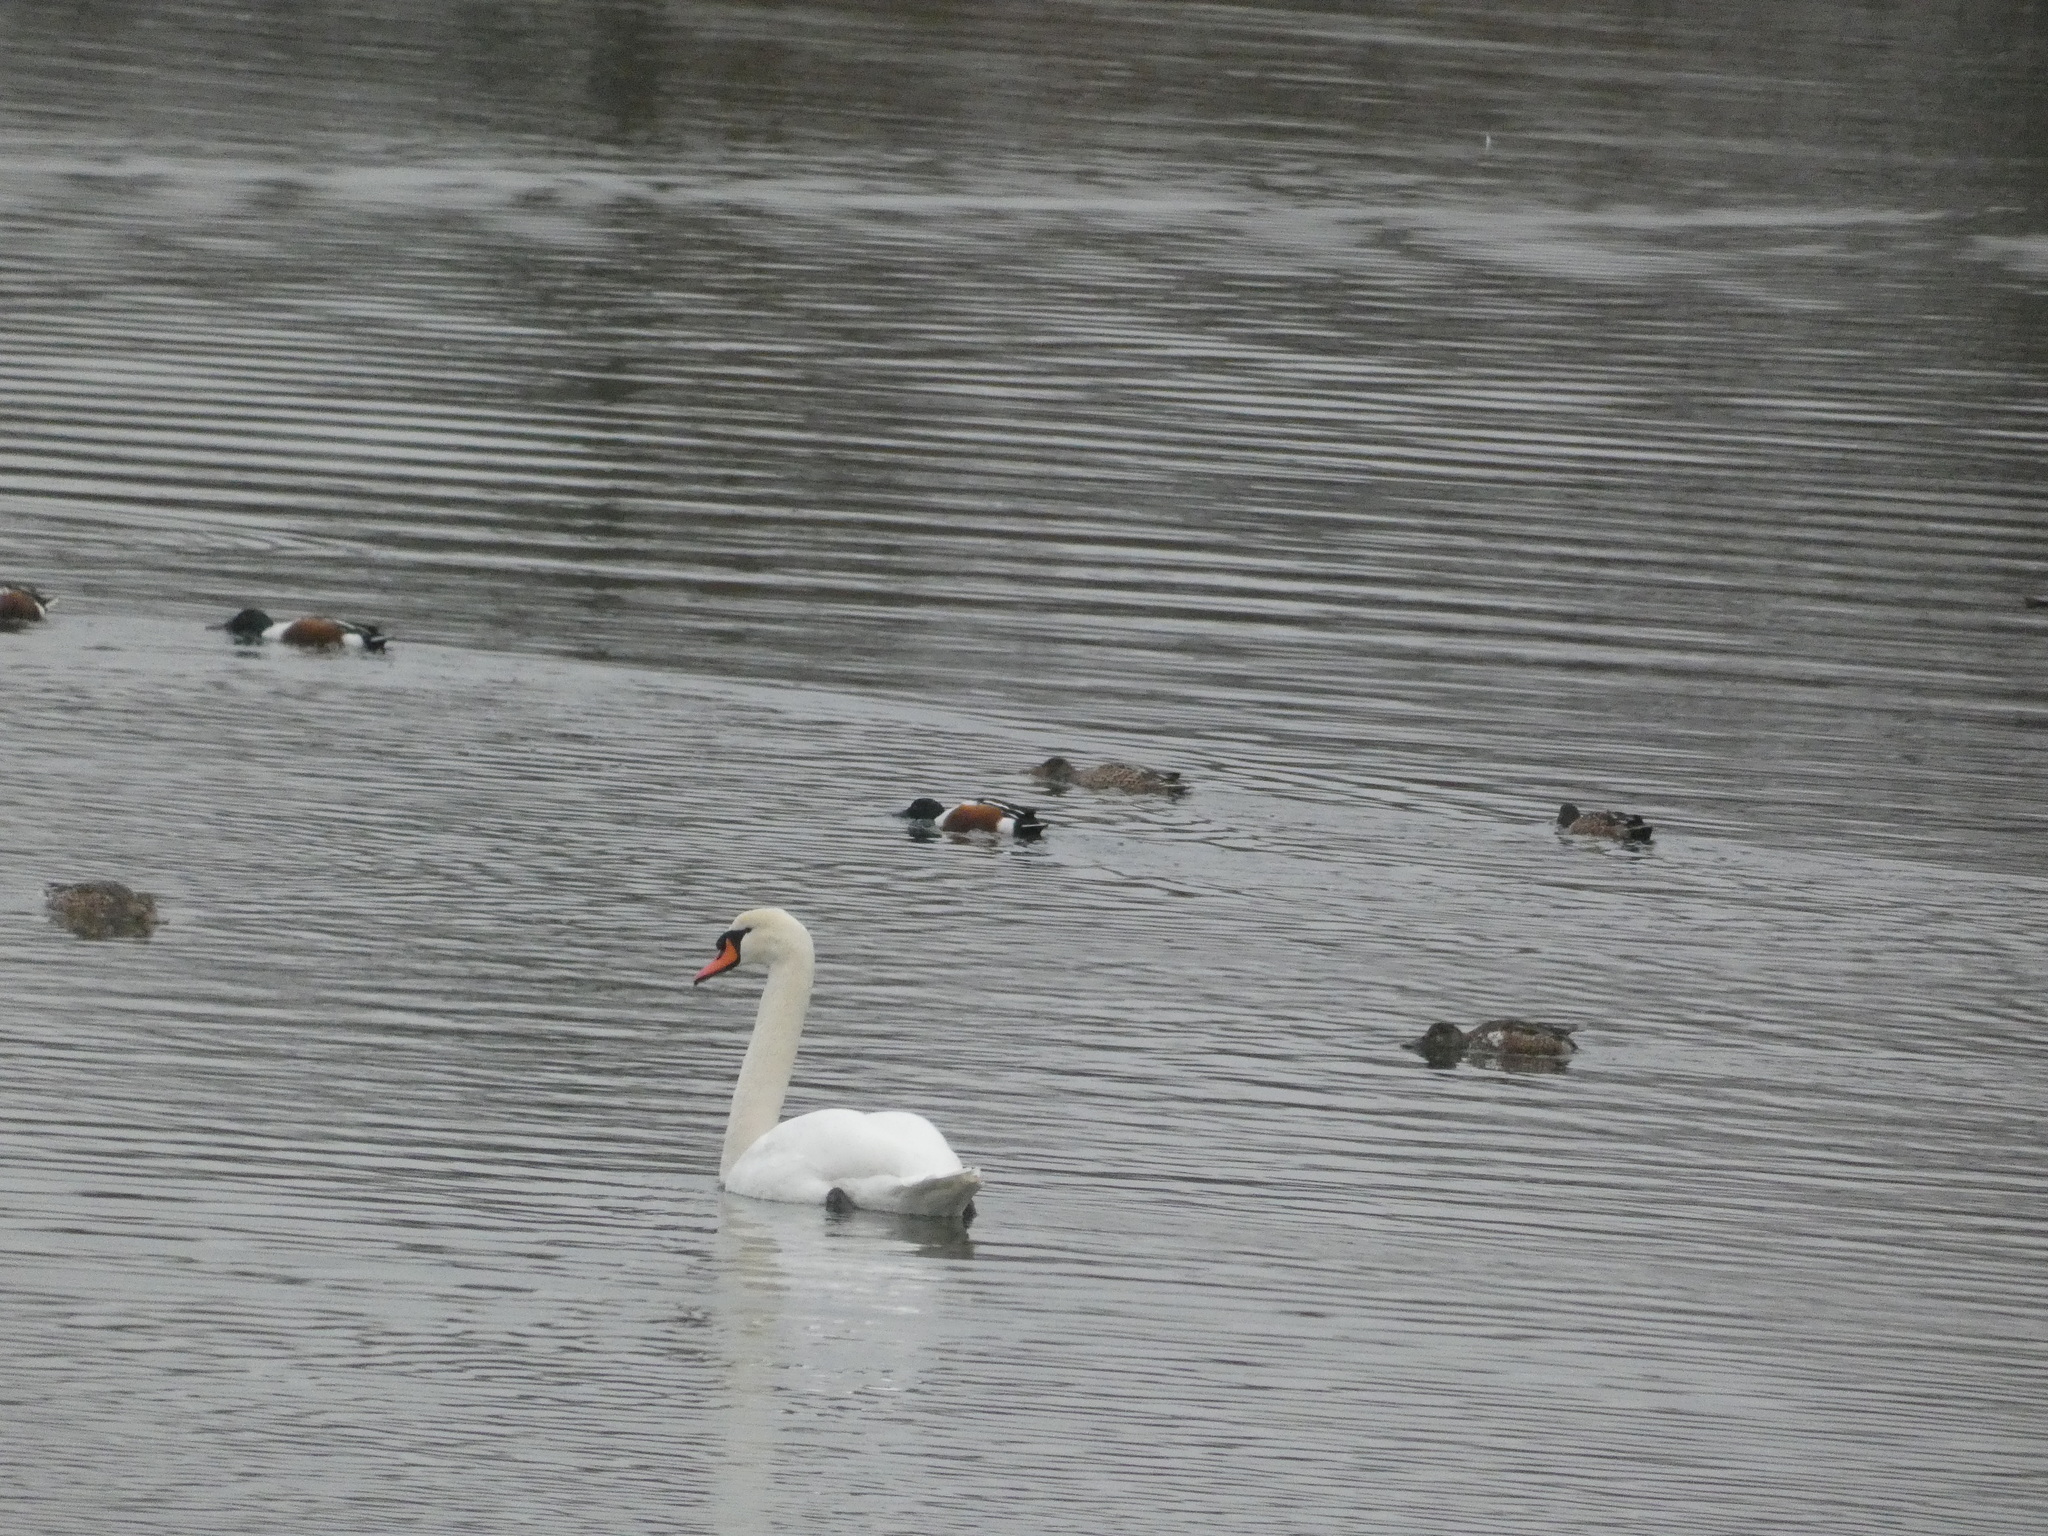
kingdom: Animalia
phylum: Chordata
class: Aves
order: Anseriformes
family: Anatidae
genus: Cygnus
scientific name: Cygnus olor
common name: Mute swan
